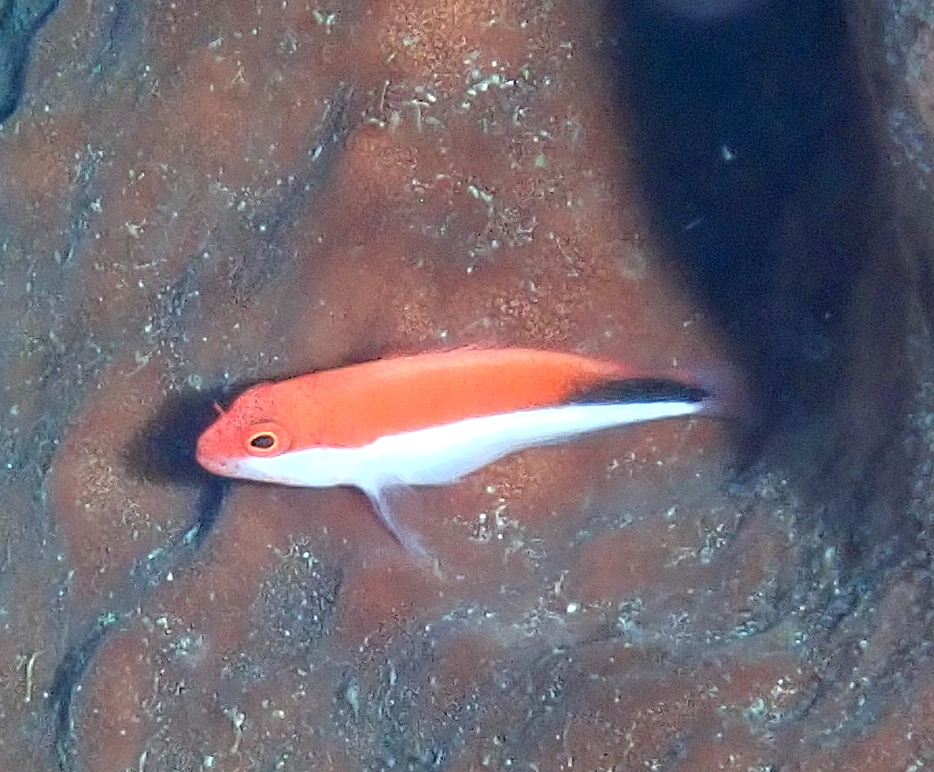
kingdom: Animalia
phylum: Chordata
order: Perciformes
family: Cirrhitidae
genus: Paracirrhites
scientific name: Paracirrhites forsteri
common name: Freckled hawkfish
